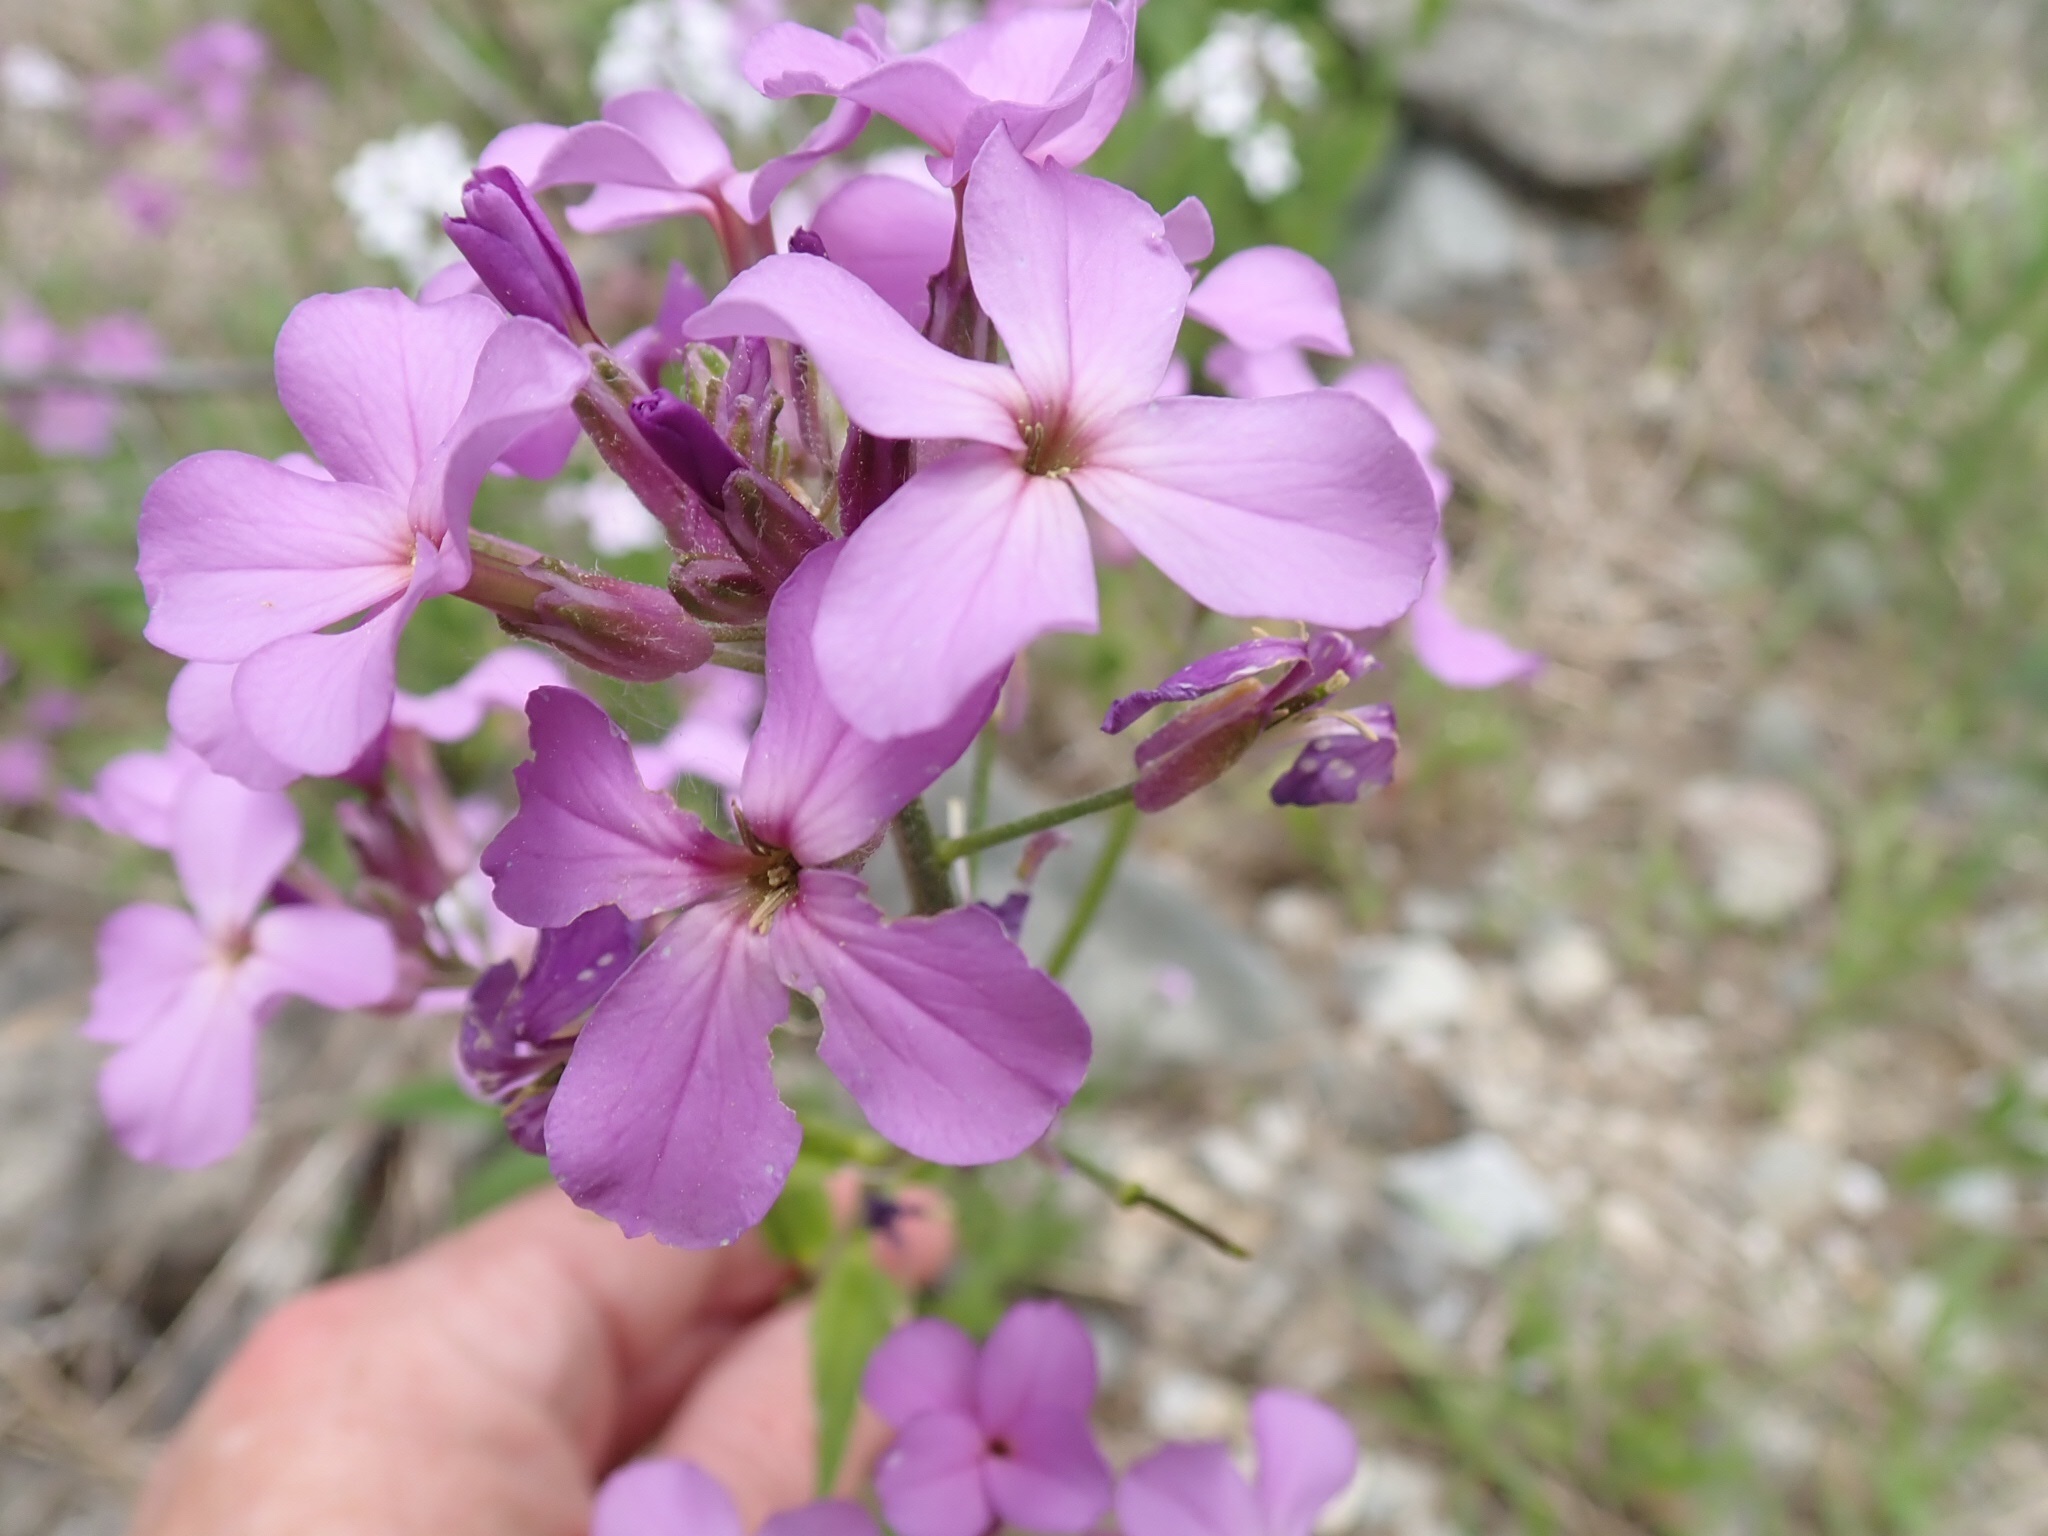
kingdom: Plantae
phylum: Tracheophyta
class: Magnoliopsida
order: Brassicales
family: Brassicaceae
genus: Hesperis
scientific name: Hesperis matronalis
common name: Dame's-violet
